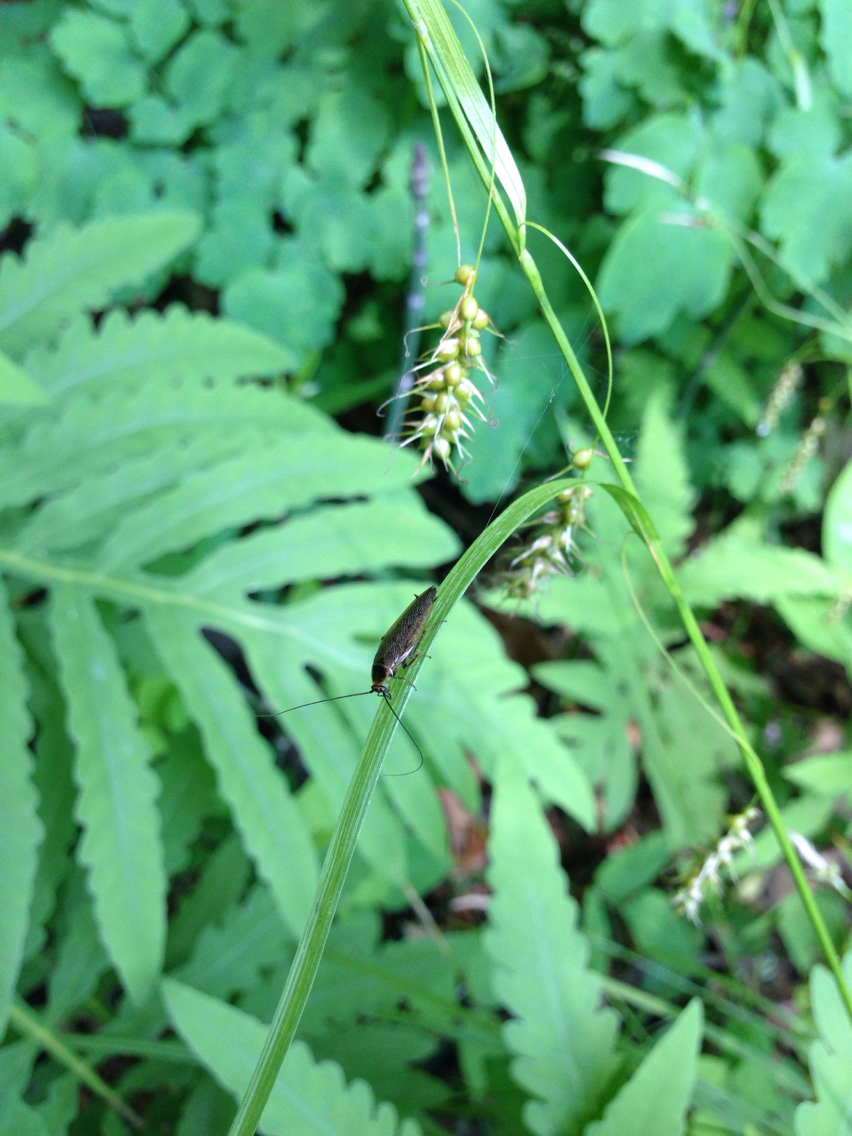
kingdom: Animalia
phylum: Arthropoda
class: Insecta
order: Blattodea
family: Ectobiidae
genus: Ectobius
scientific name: Ectobius lapponicus
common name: Dusky cockroach
